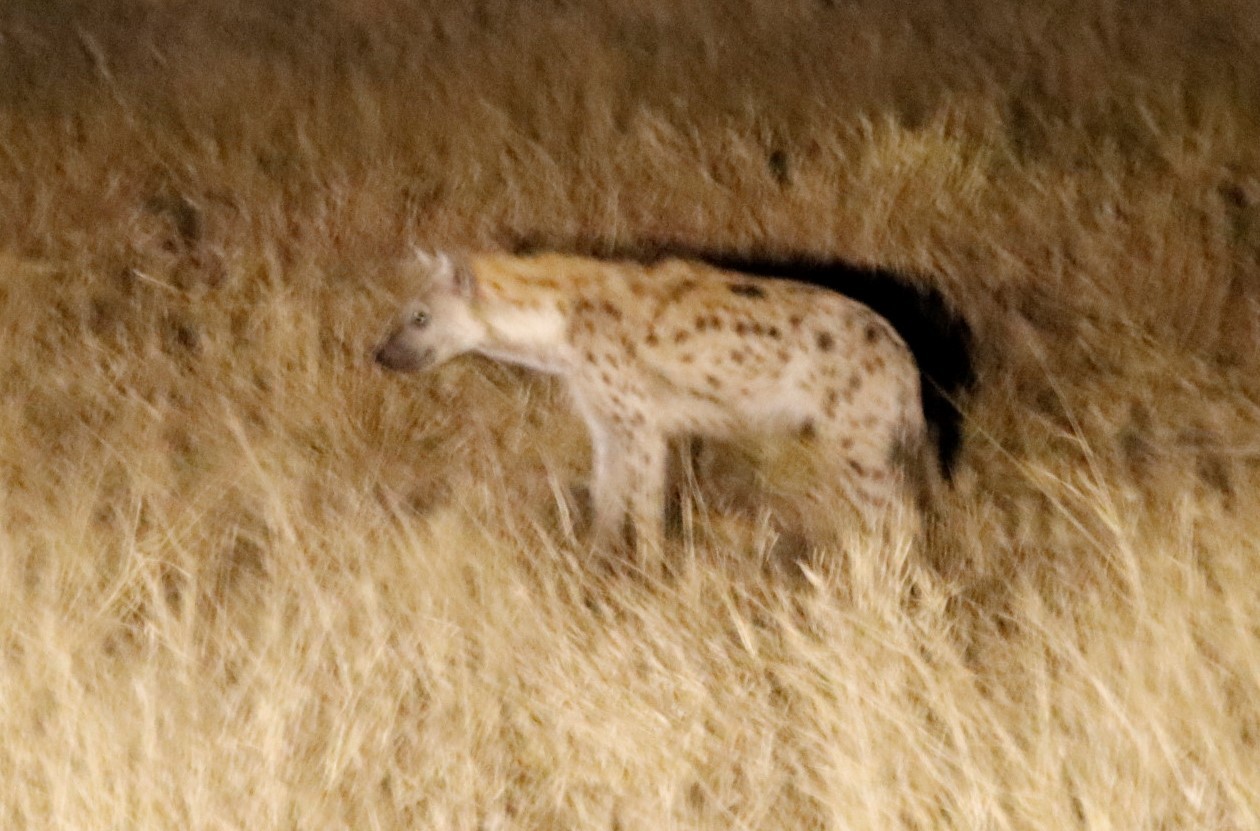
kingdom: Animalia
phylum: Chordata
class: Mammalia
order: Carnivora
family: Hyaenidae
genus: Crocuta
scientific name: Crocuta crocuta
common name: Spotted hyaena
